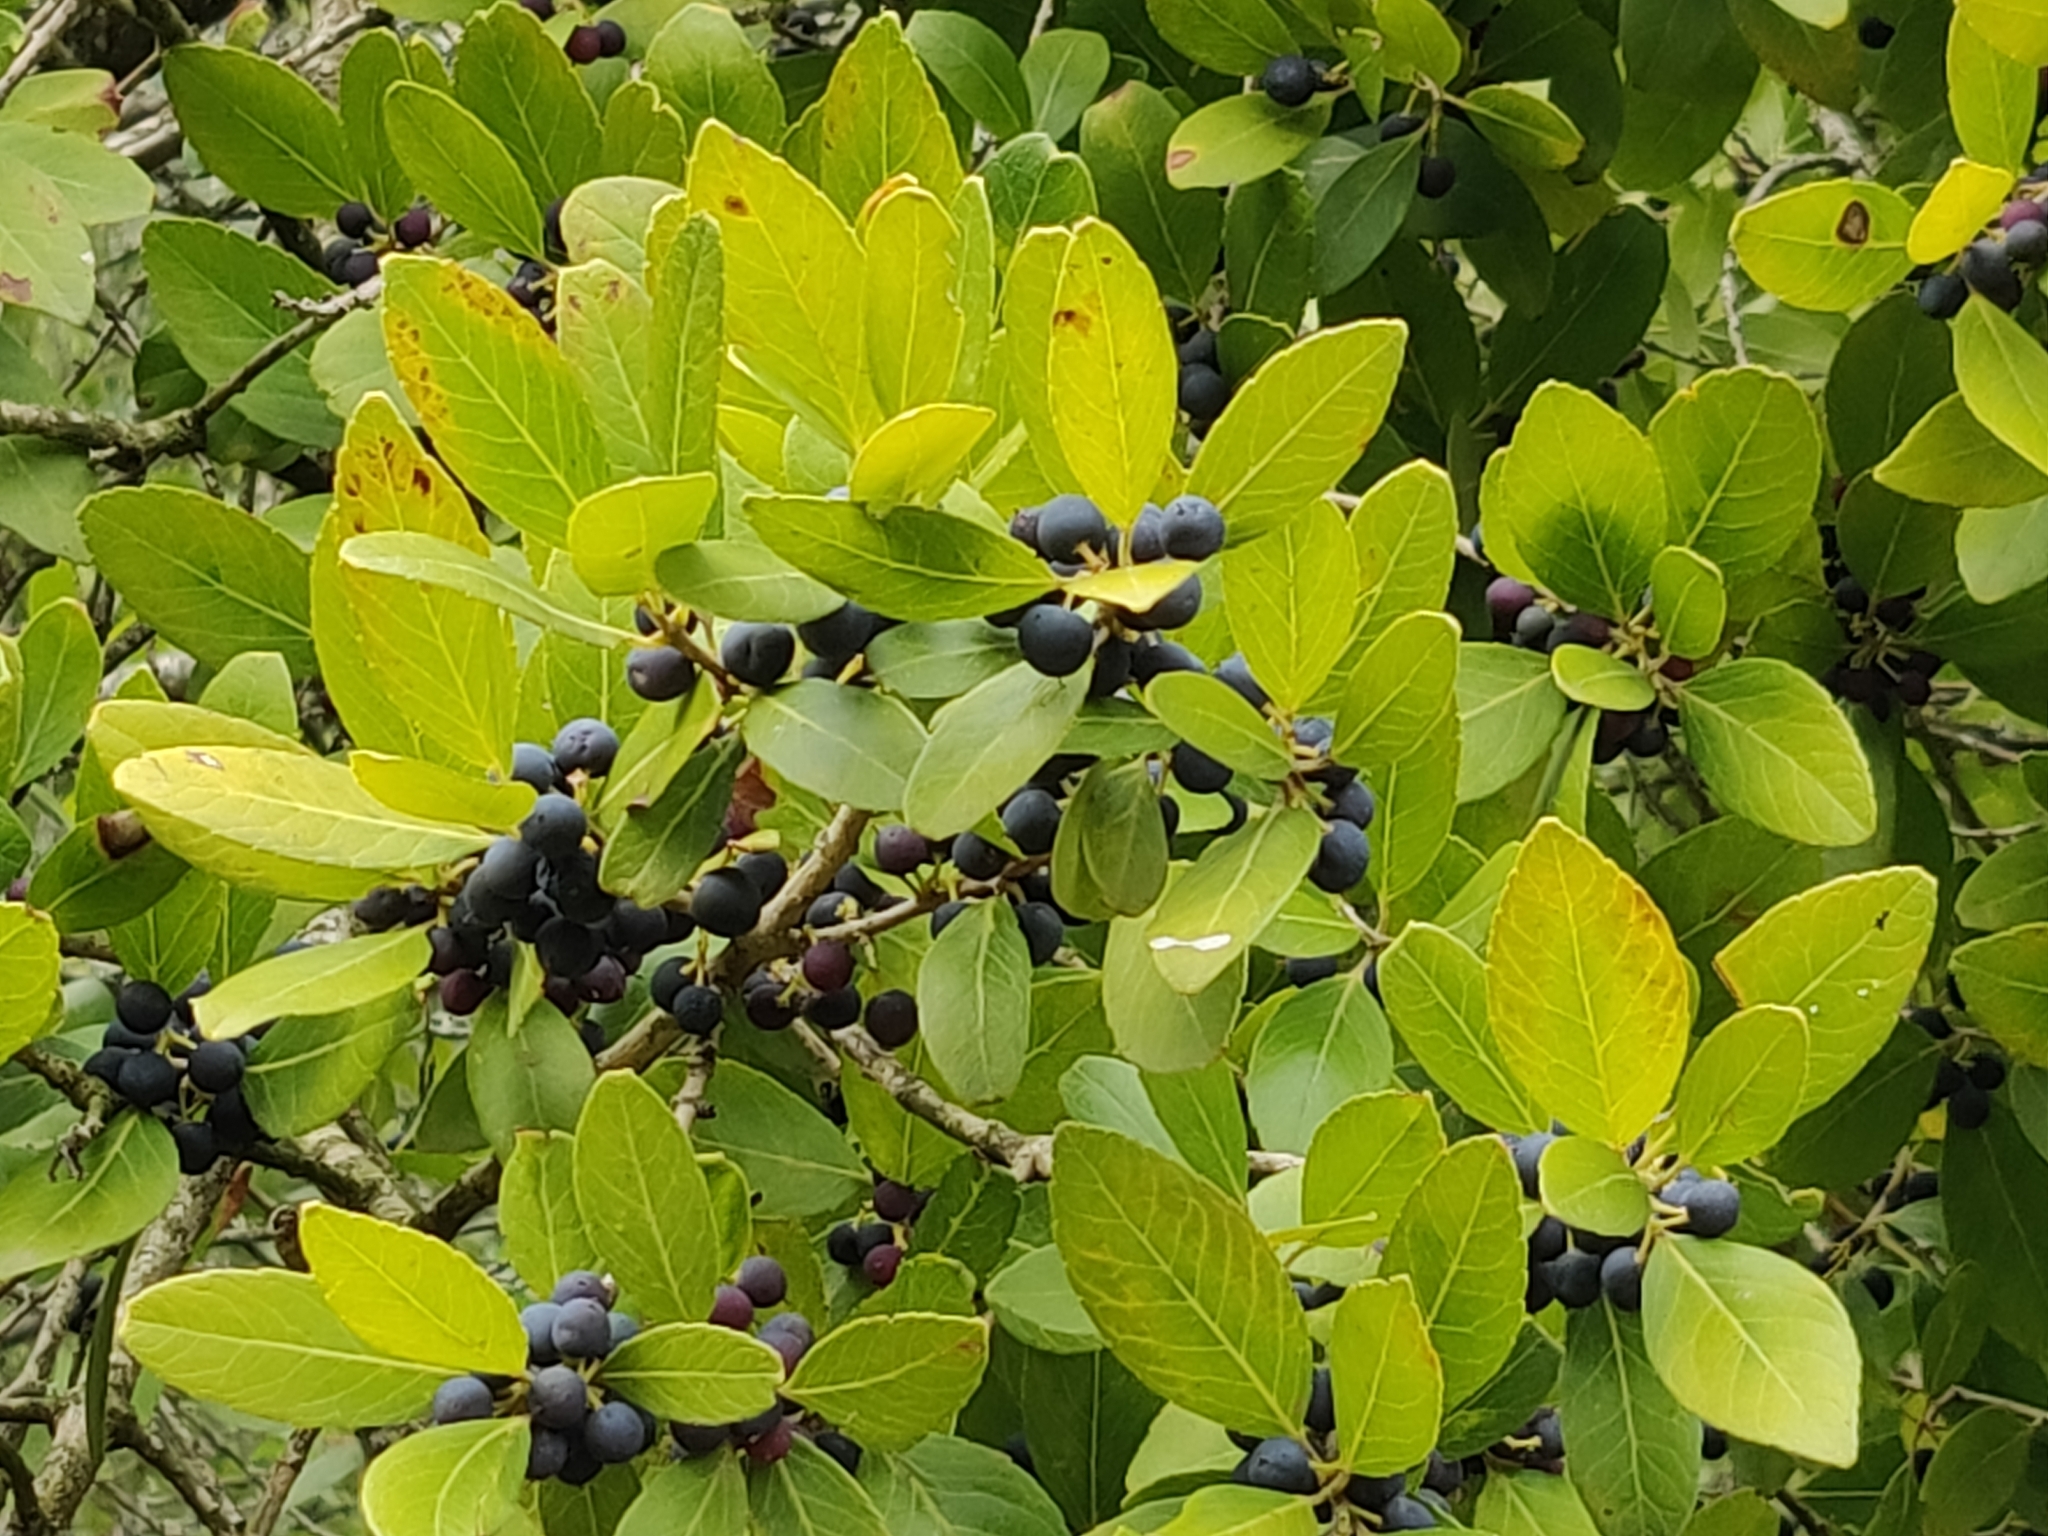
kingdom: Plantae
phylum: Tracheophyta
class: Magnoliopsida
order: Lamiales
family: Oleaceae
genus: Phillyrea
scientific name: Phillyrea latifolia
